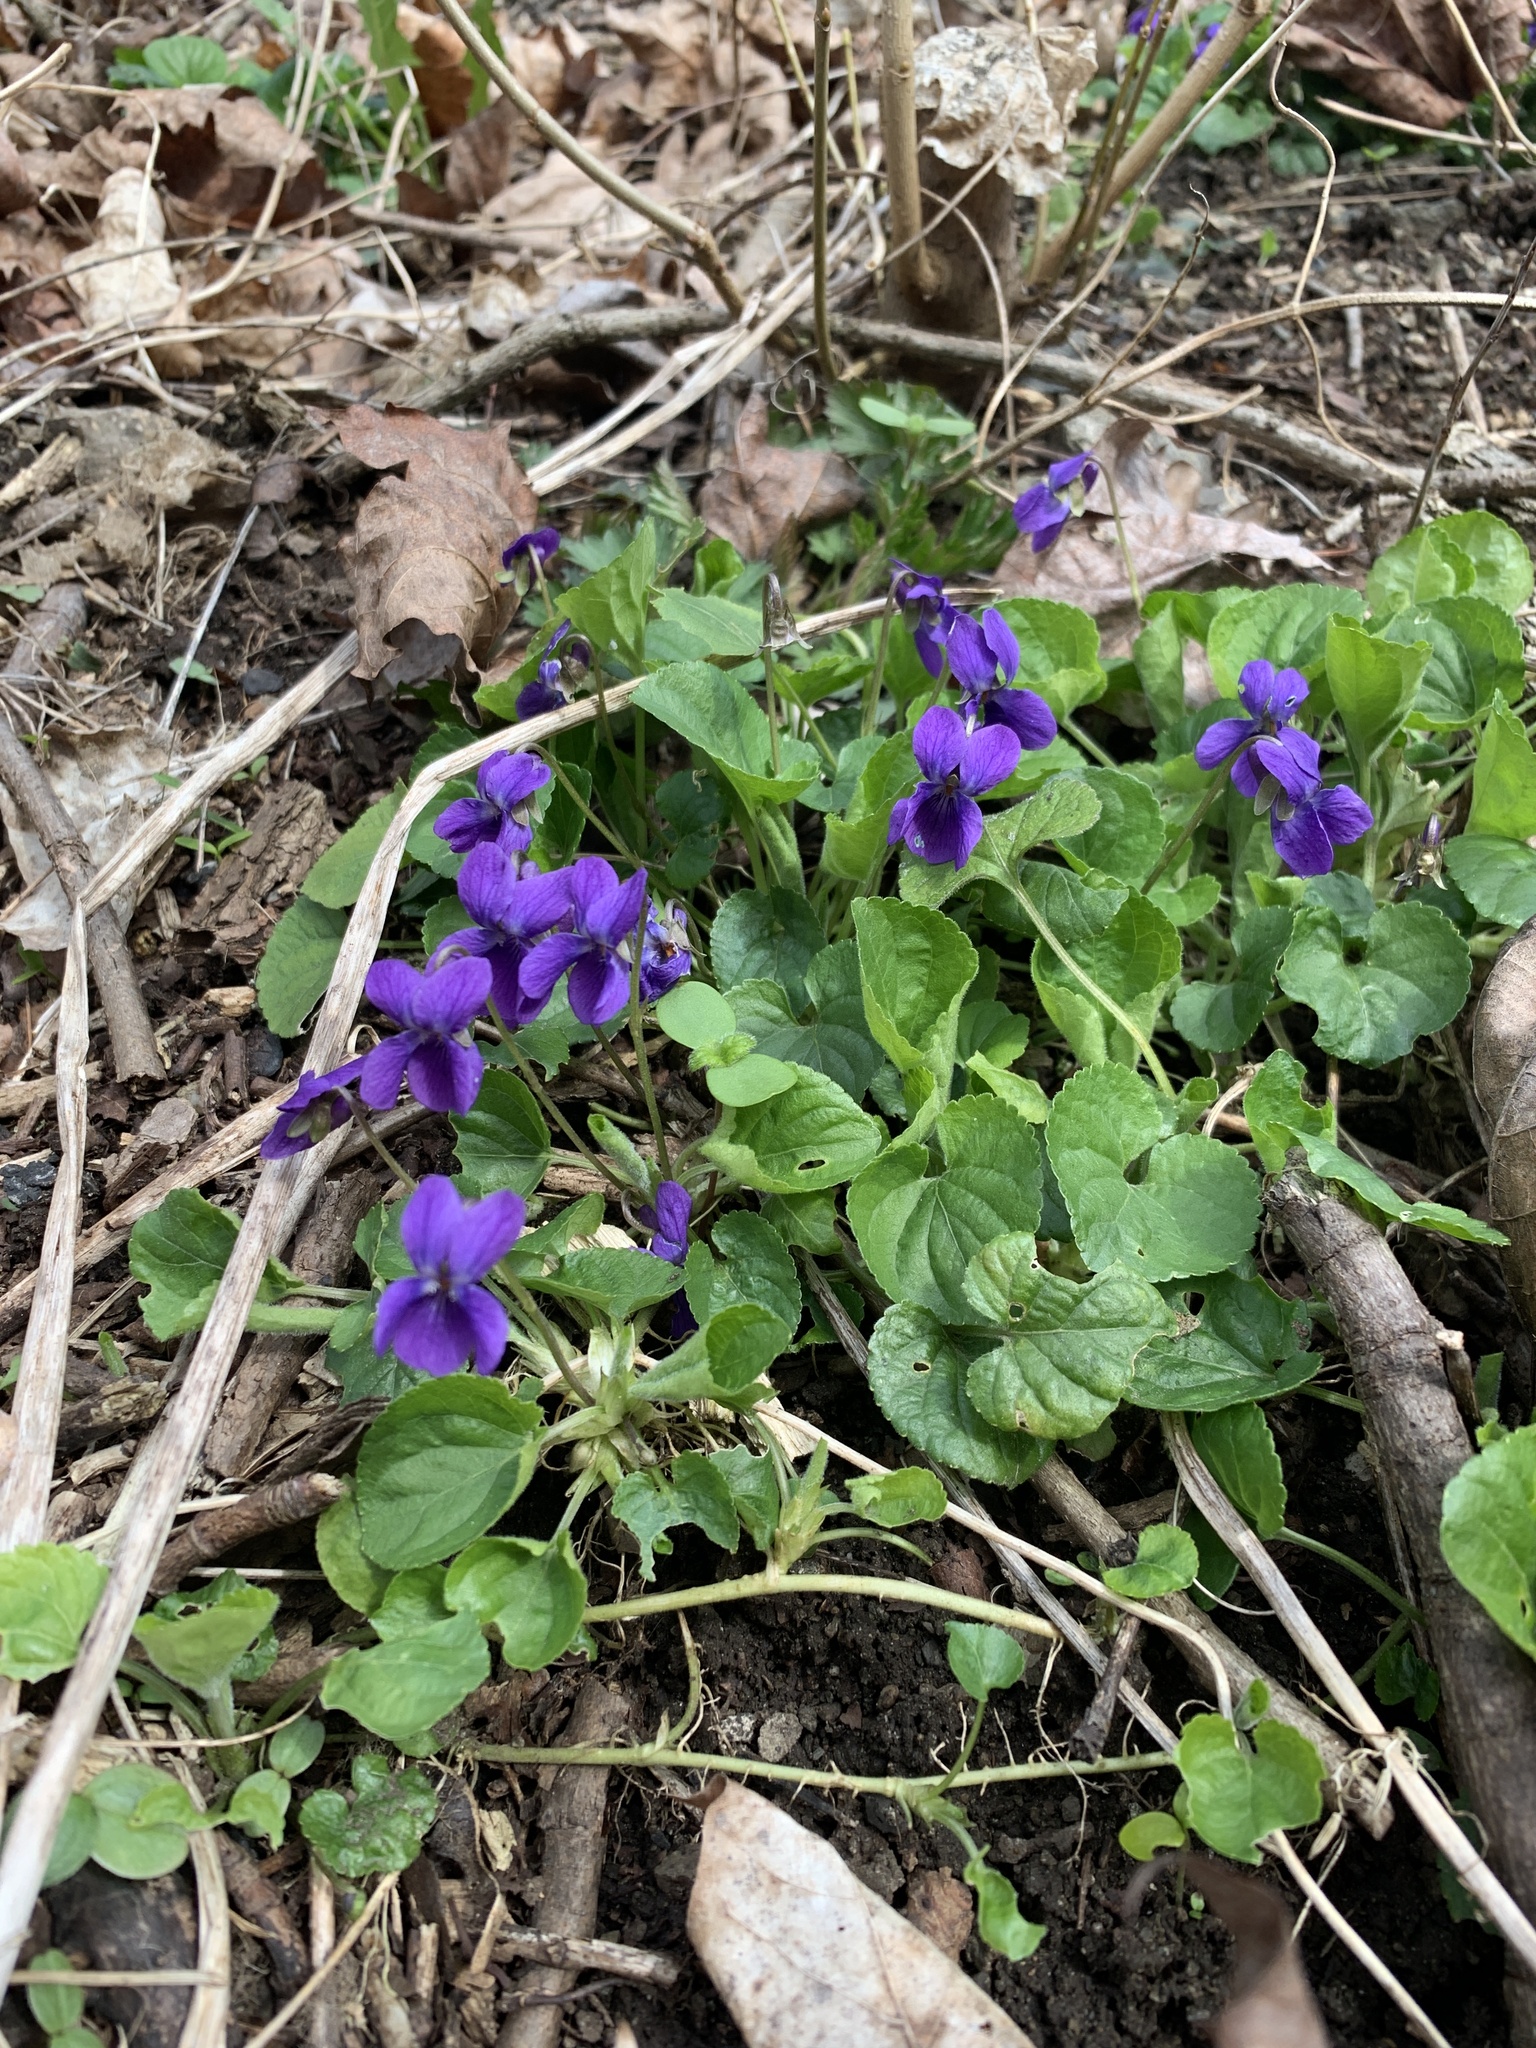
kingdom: Plantae
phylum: Tracheophyta
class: Magnoliopsida
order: Malpighiales
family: Violaceae
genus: Viola
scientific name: Viola odorata
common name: Sweet violet
